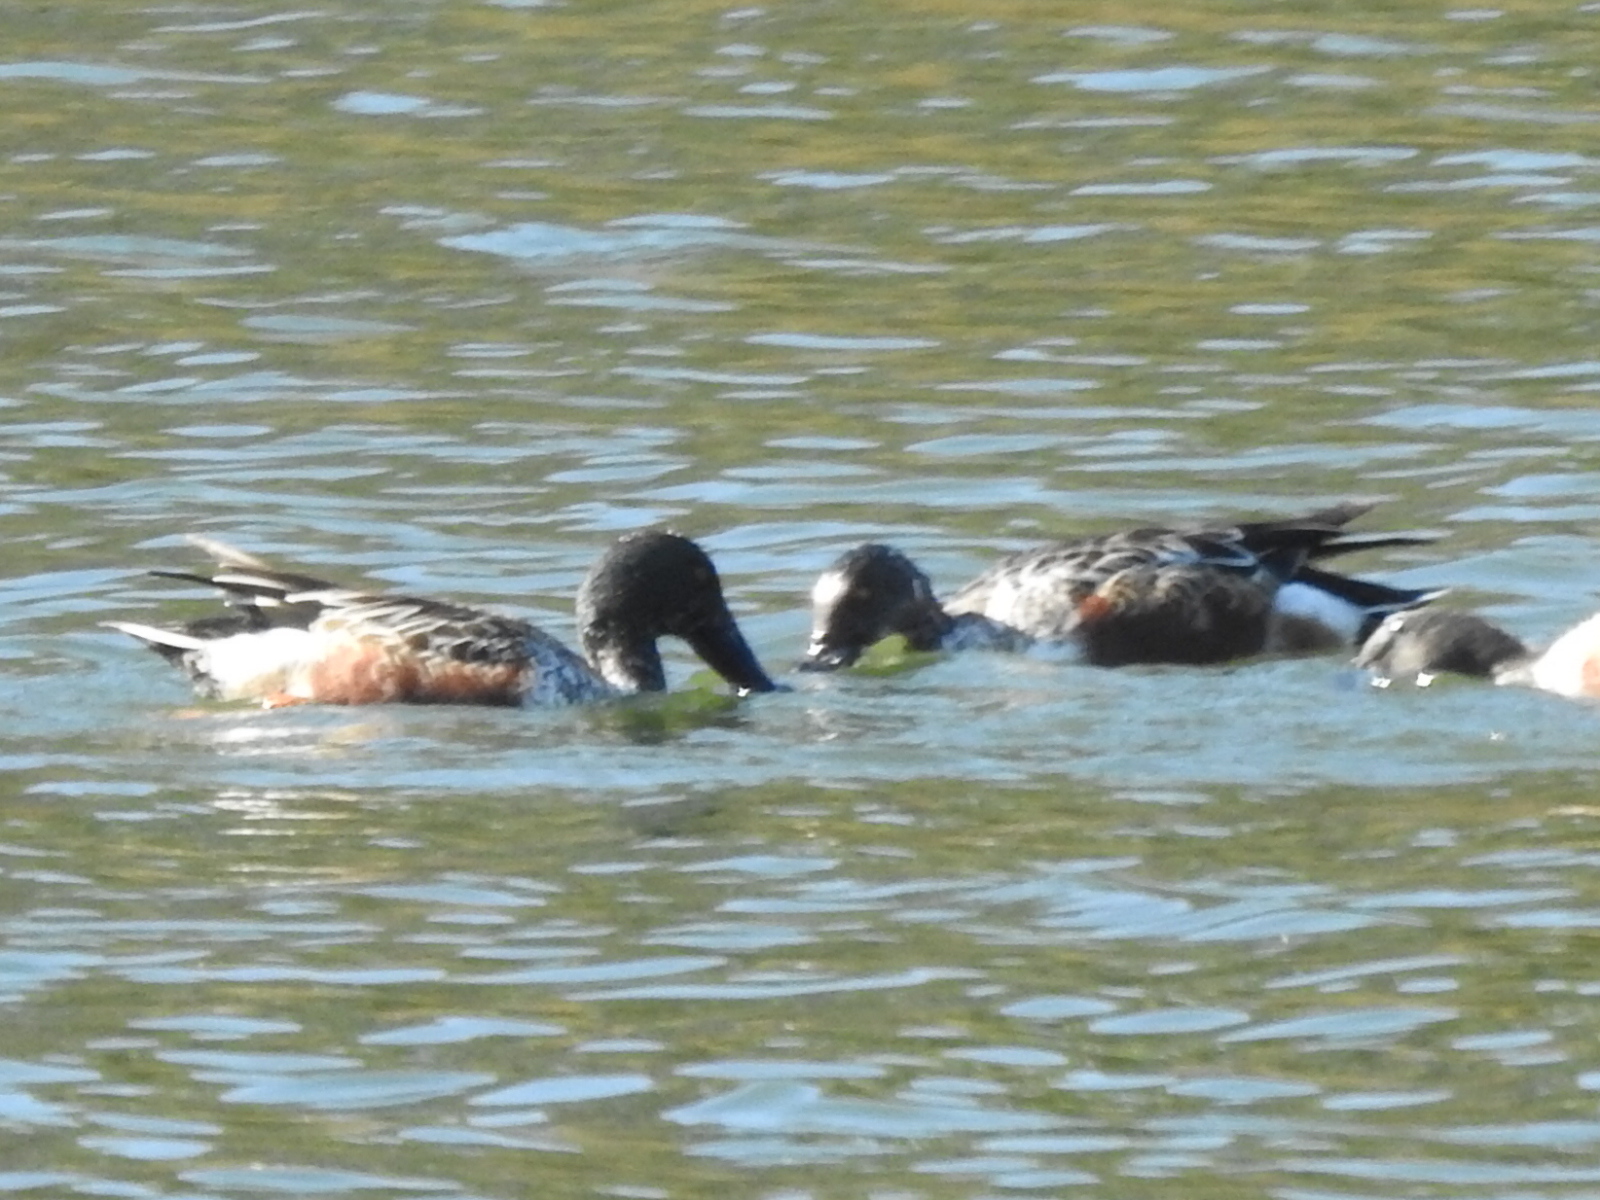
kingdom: Animalia
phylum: Chordata
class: Aves
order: Anseriformes
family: Anatidae
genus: Spatula
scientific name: Spatula clypeata
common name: Northern shoveler
